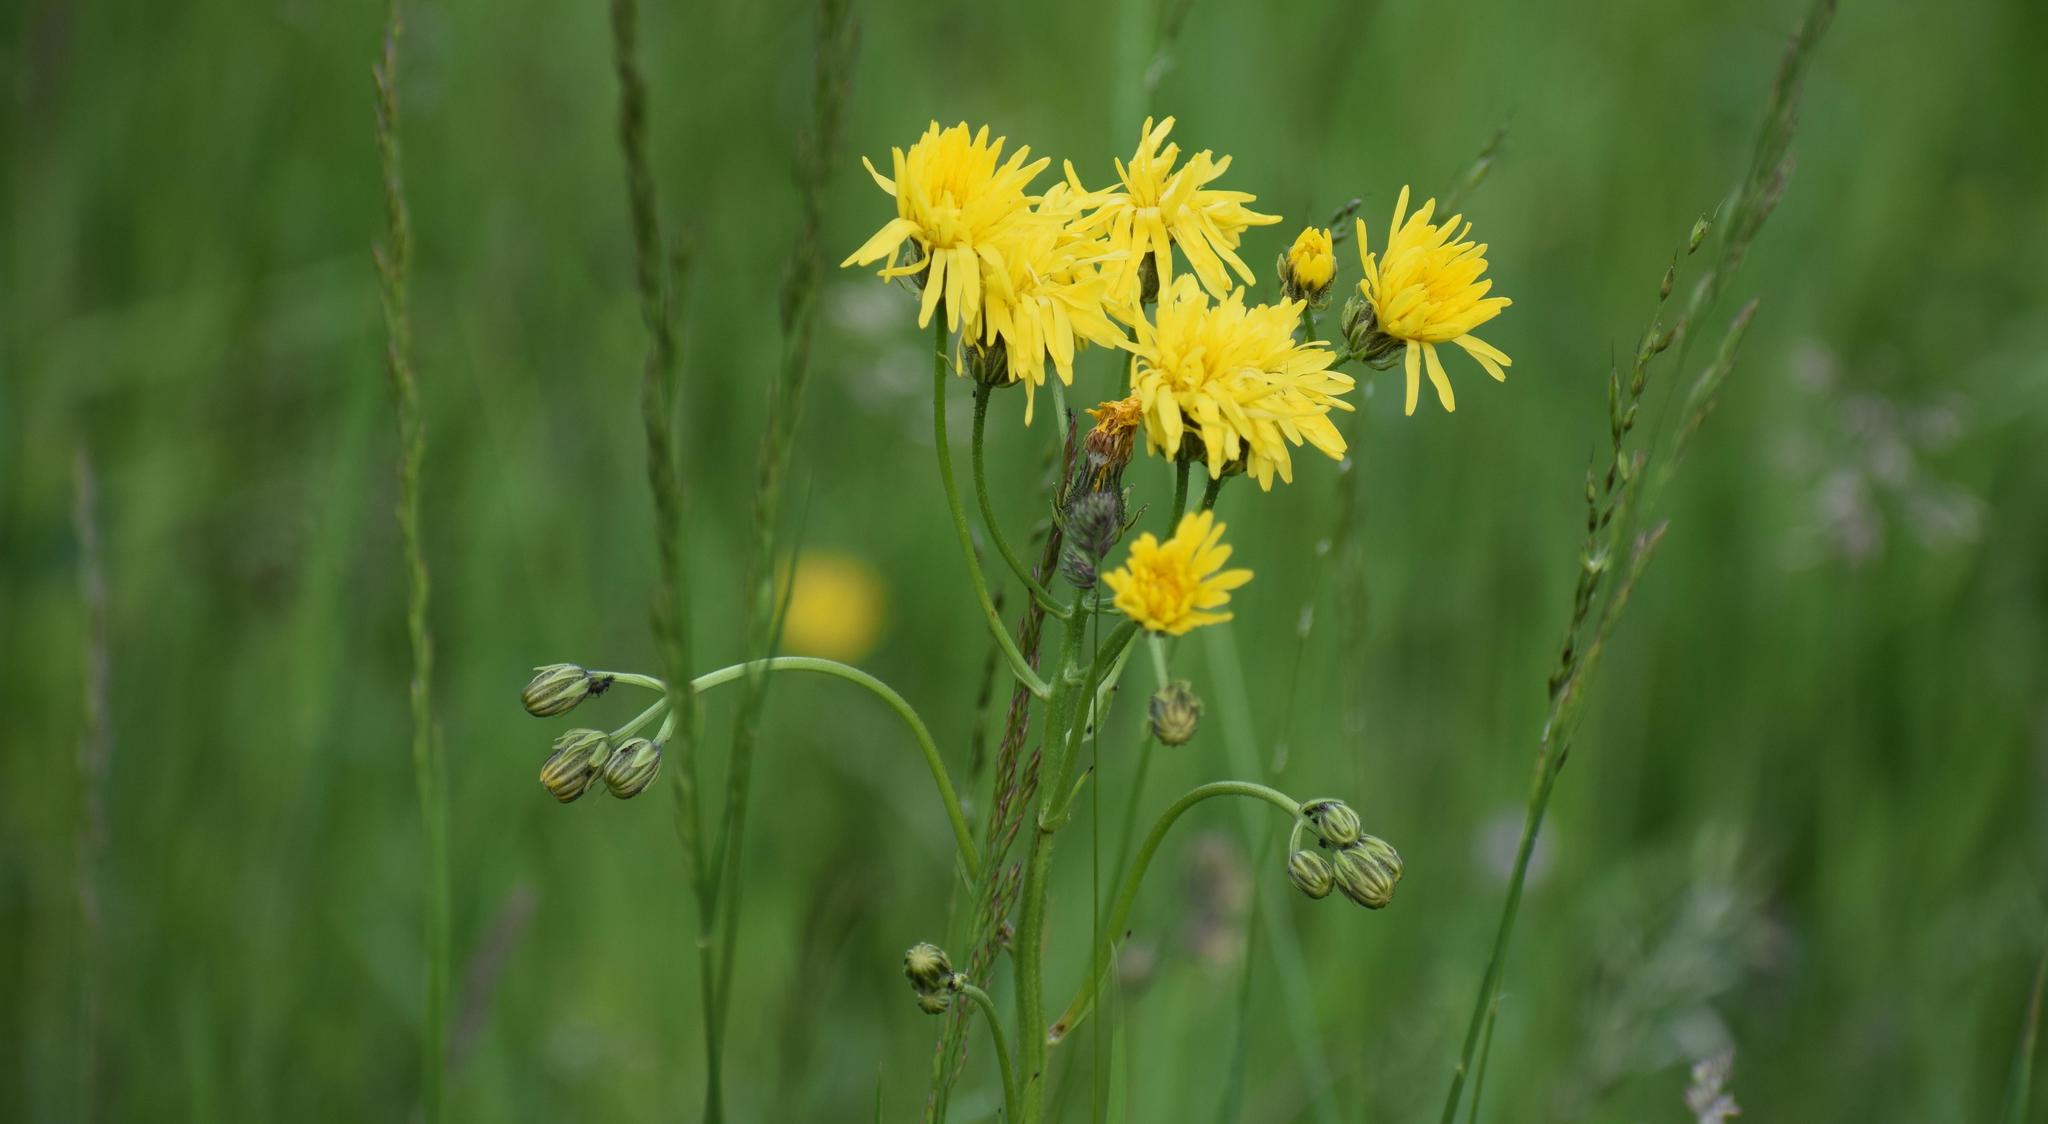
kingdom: Plantae
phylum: Tracheophyta
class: Magnoliopsida
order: Asterales
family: Asteraceae
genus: Crepis
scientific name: Crepis biennis
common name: Rough hawk's-beard
